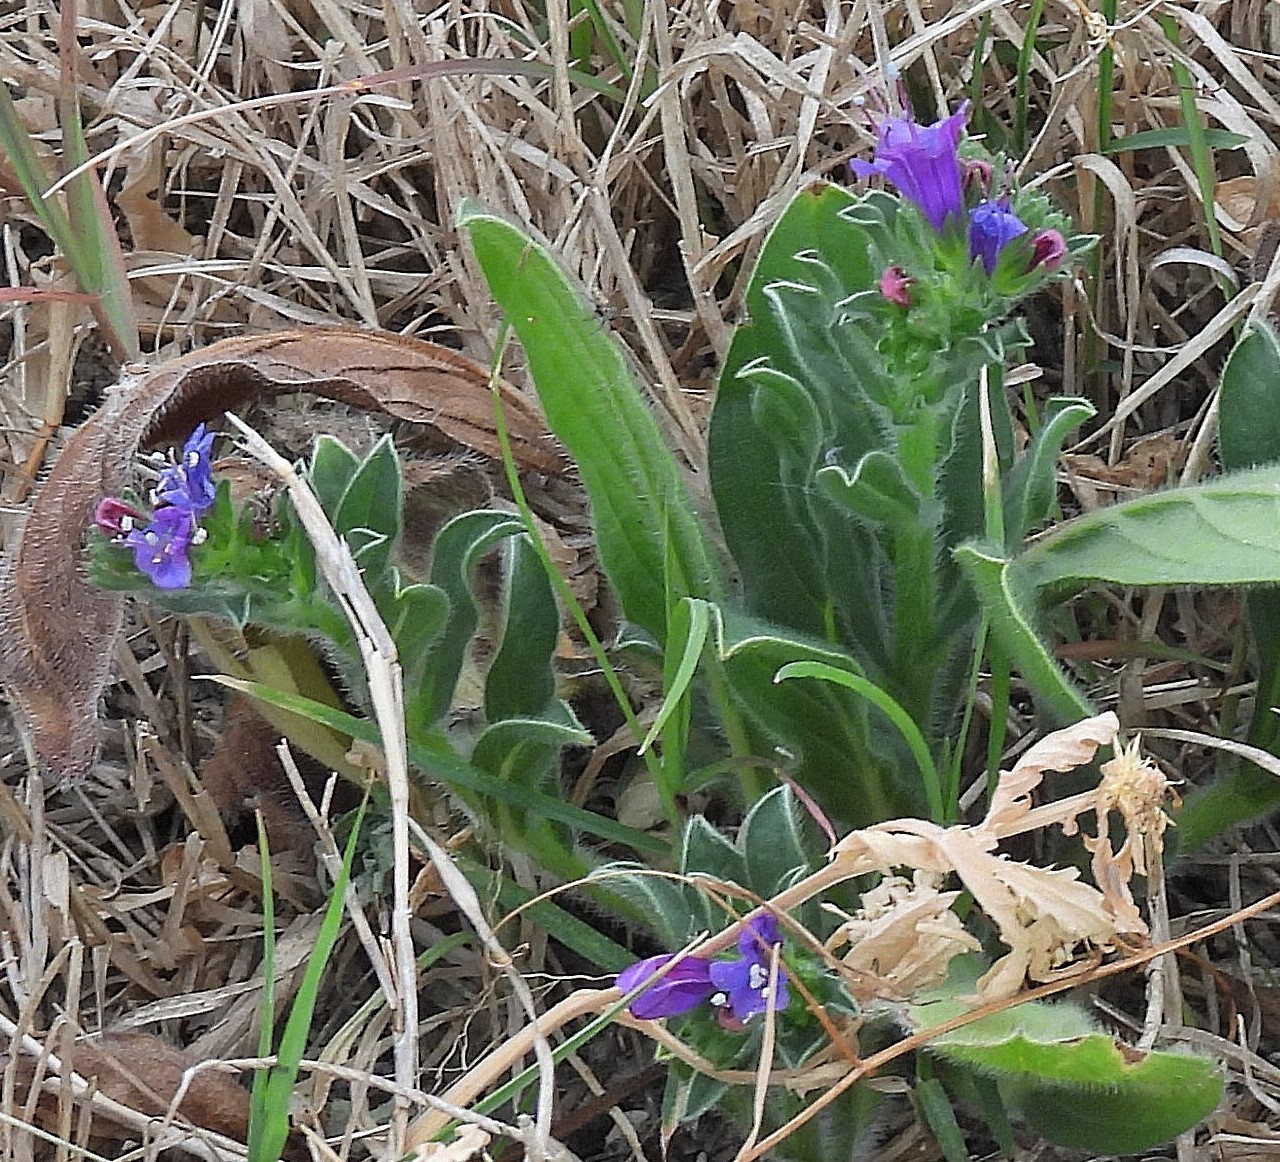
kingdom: Plantae
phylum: Tracheophyta
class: Magnoliopsida
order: Boraginales
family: Boraginaceae
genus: Echium
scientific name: Echium plantagineum
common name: Purple viper's-bugloss
